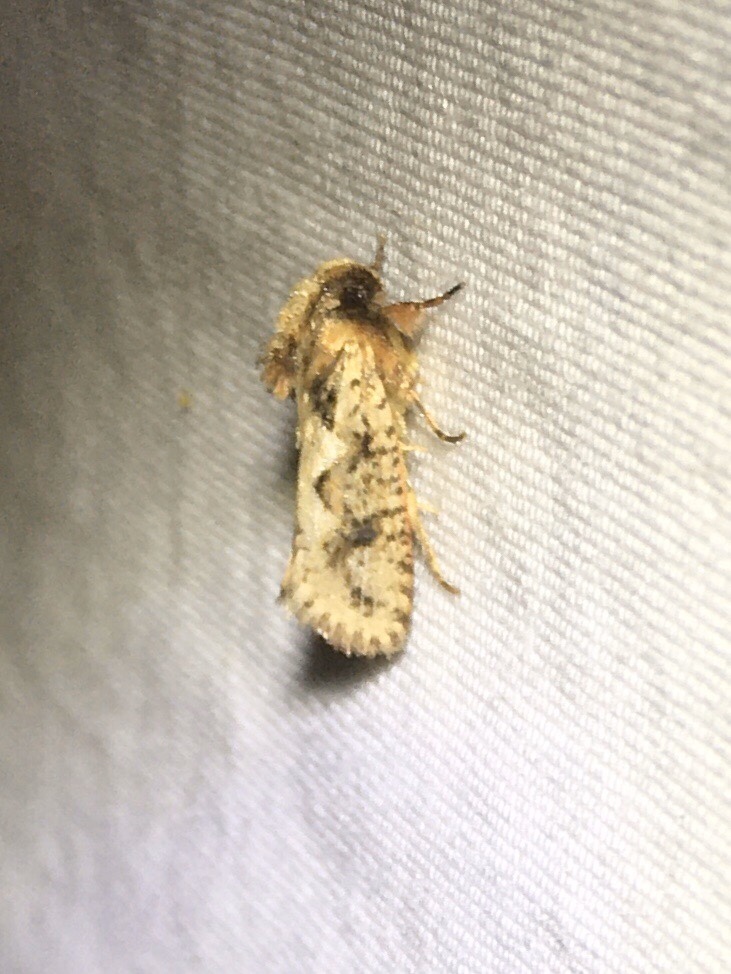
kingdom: Animalia
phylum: Arthropoda
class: Insecta
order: Lepidoptera
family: Tineidae
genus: Acrolophus
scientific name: Acrolophus walsinghami
